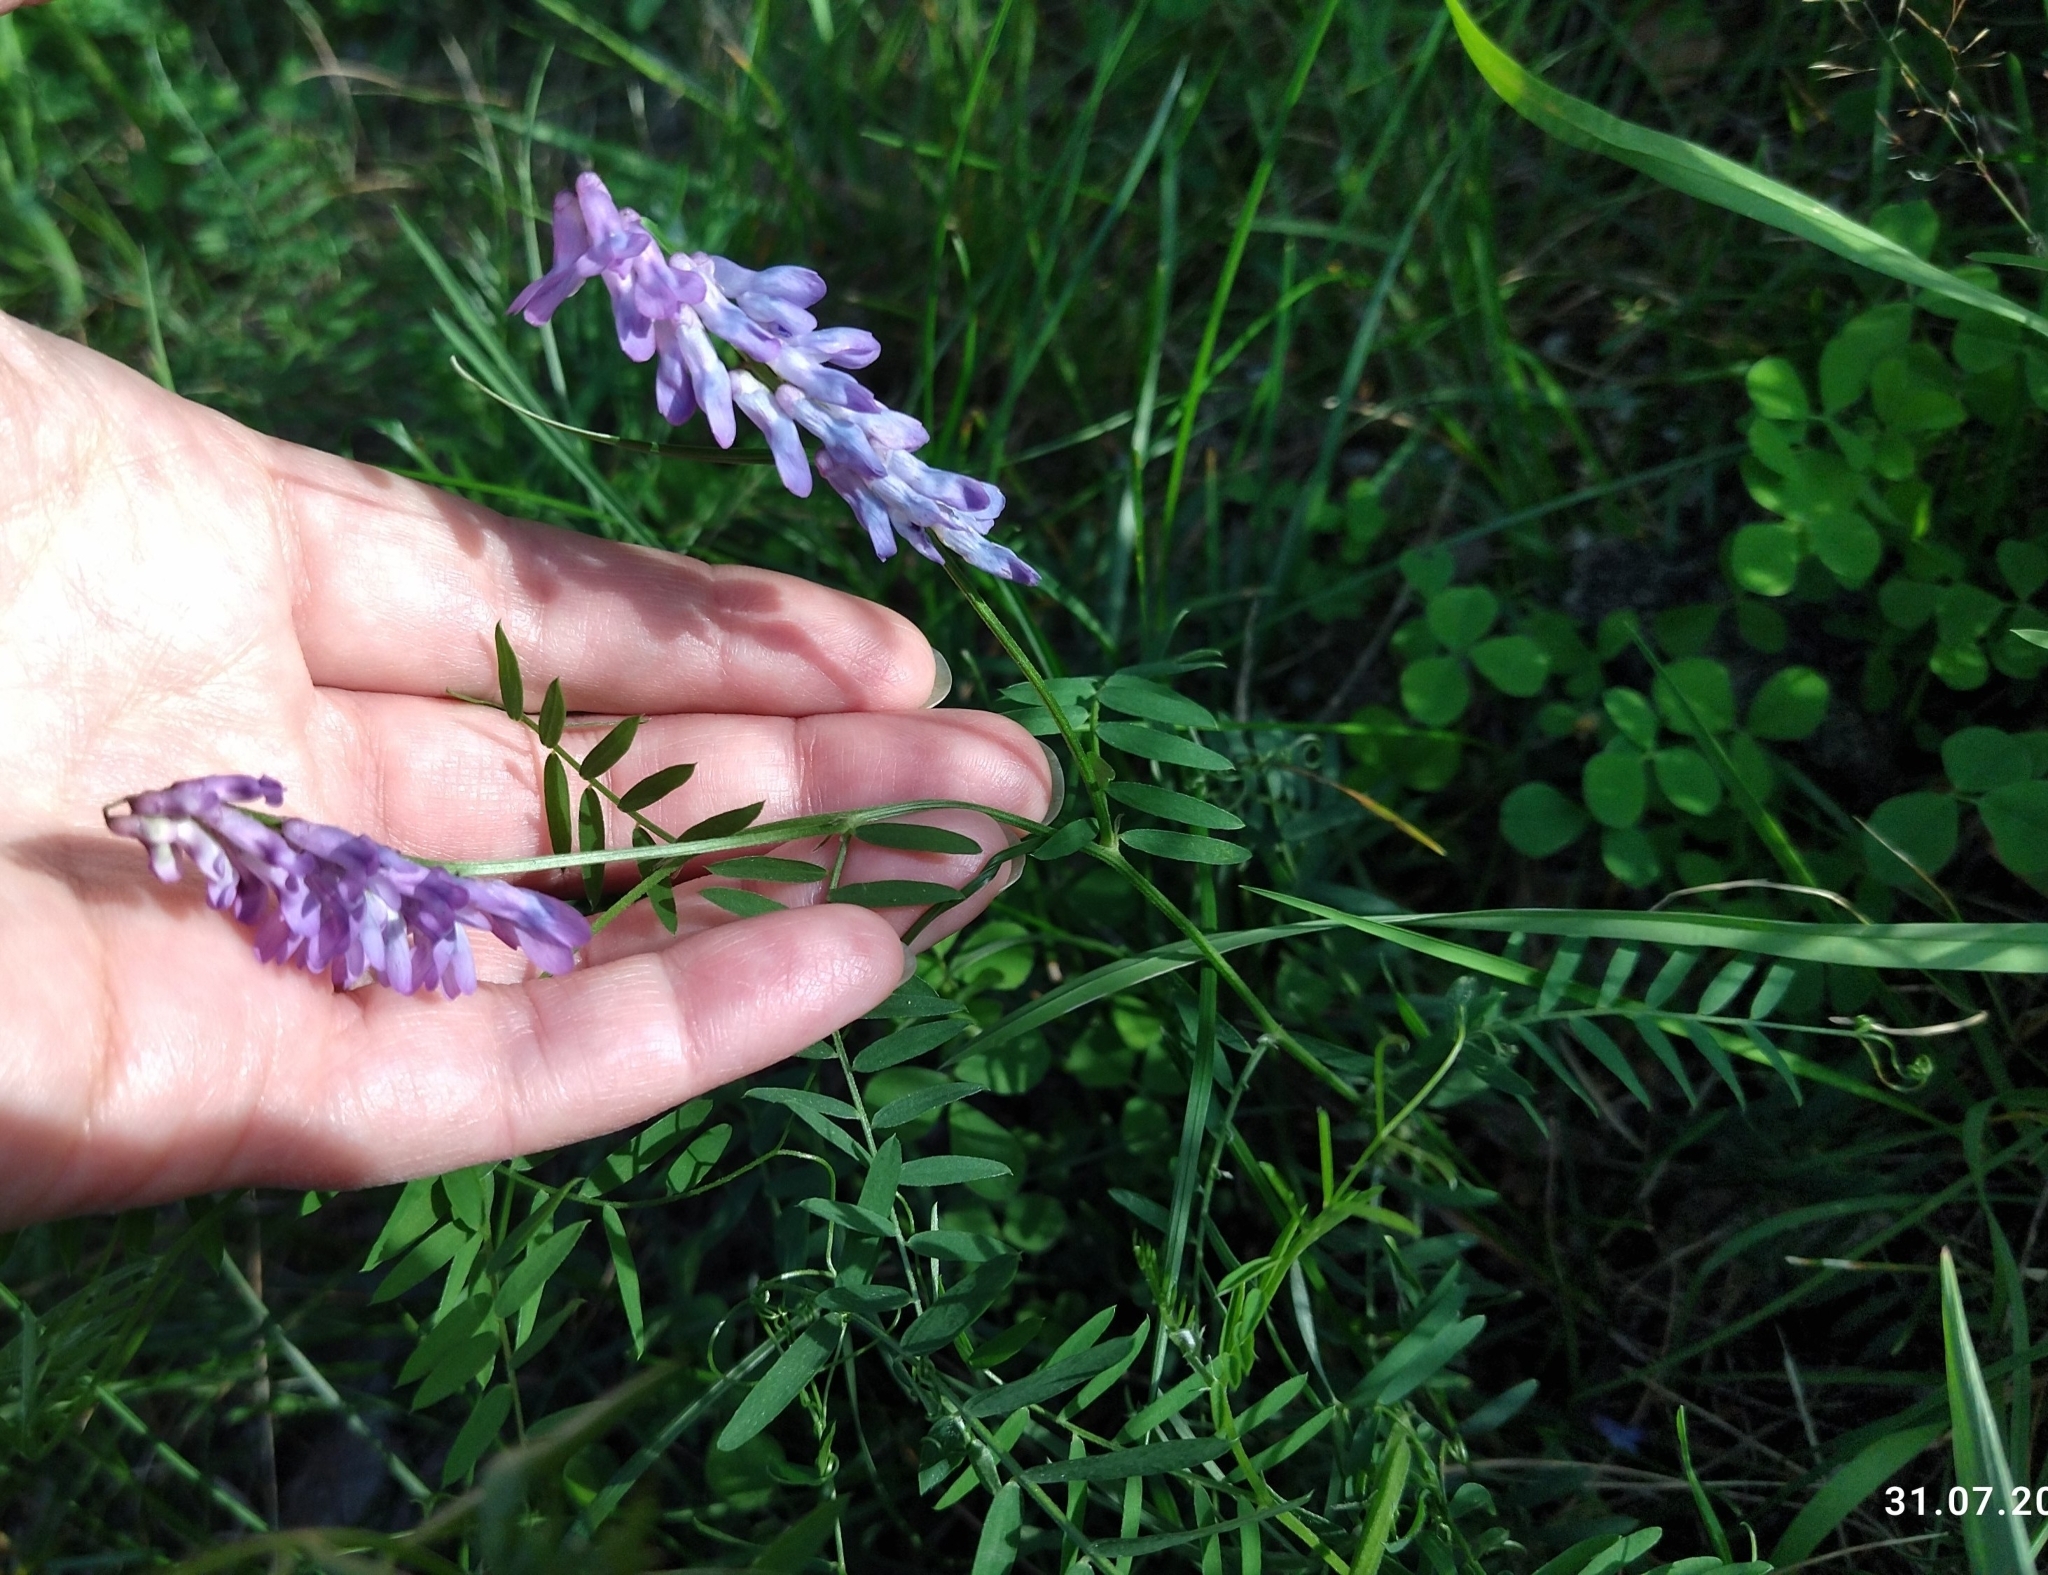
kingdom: Plantae
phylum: Tracheophyta
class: Magnoliopsida
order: Fabales
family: Fabaceae
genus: Vicia
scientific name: Vicia cracca
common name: Bird vetch
